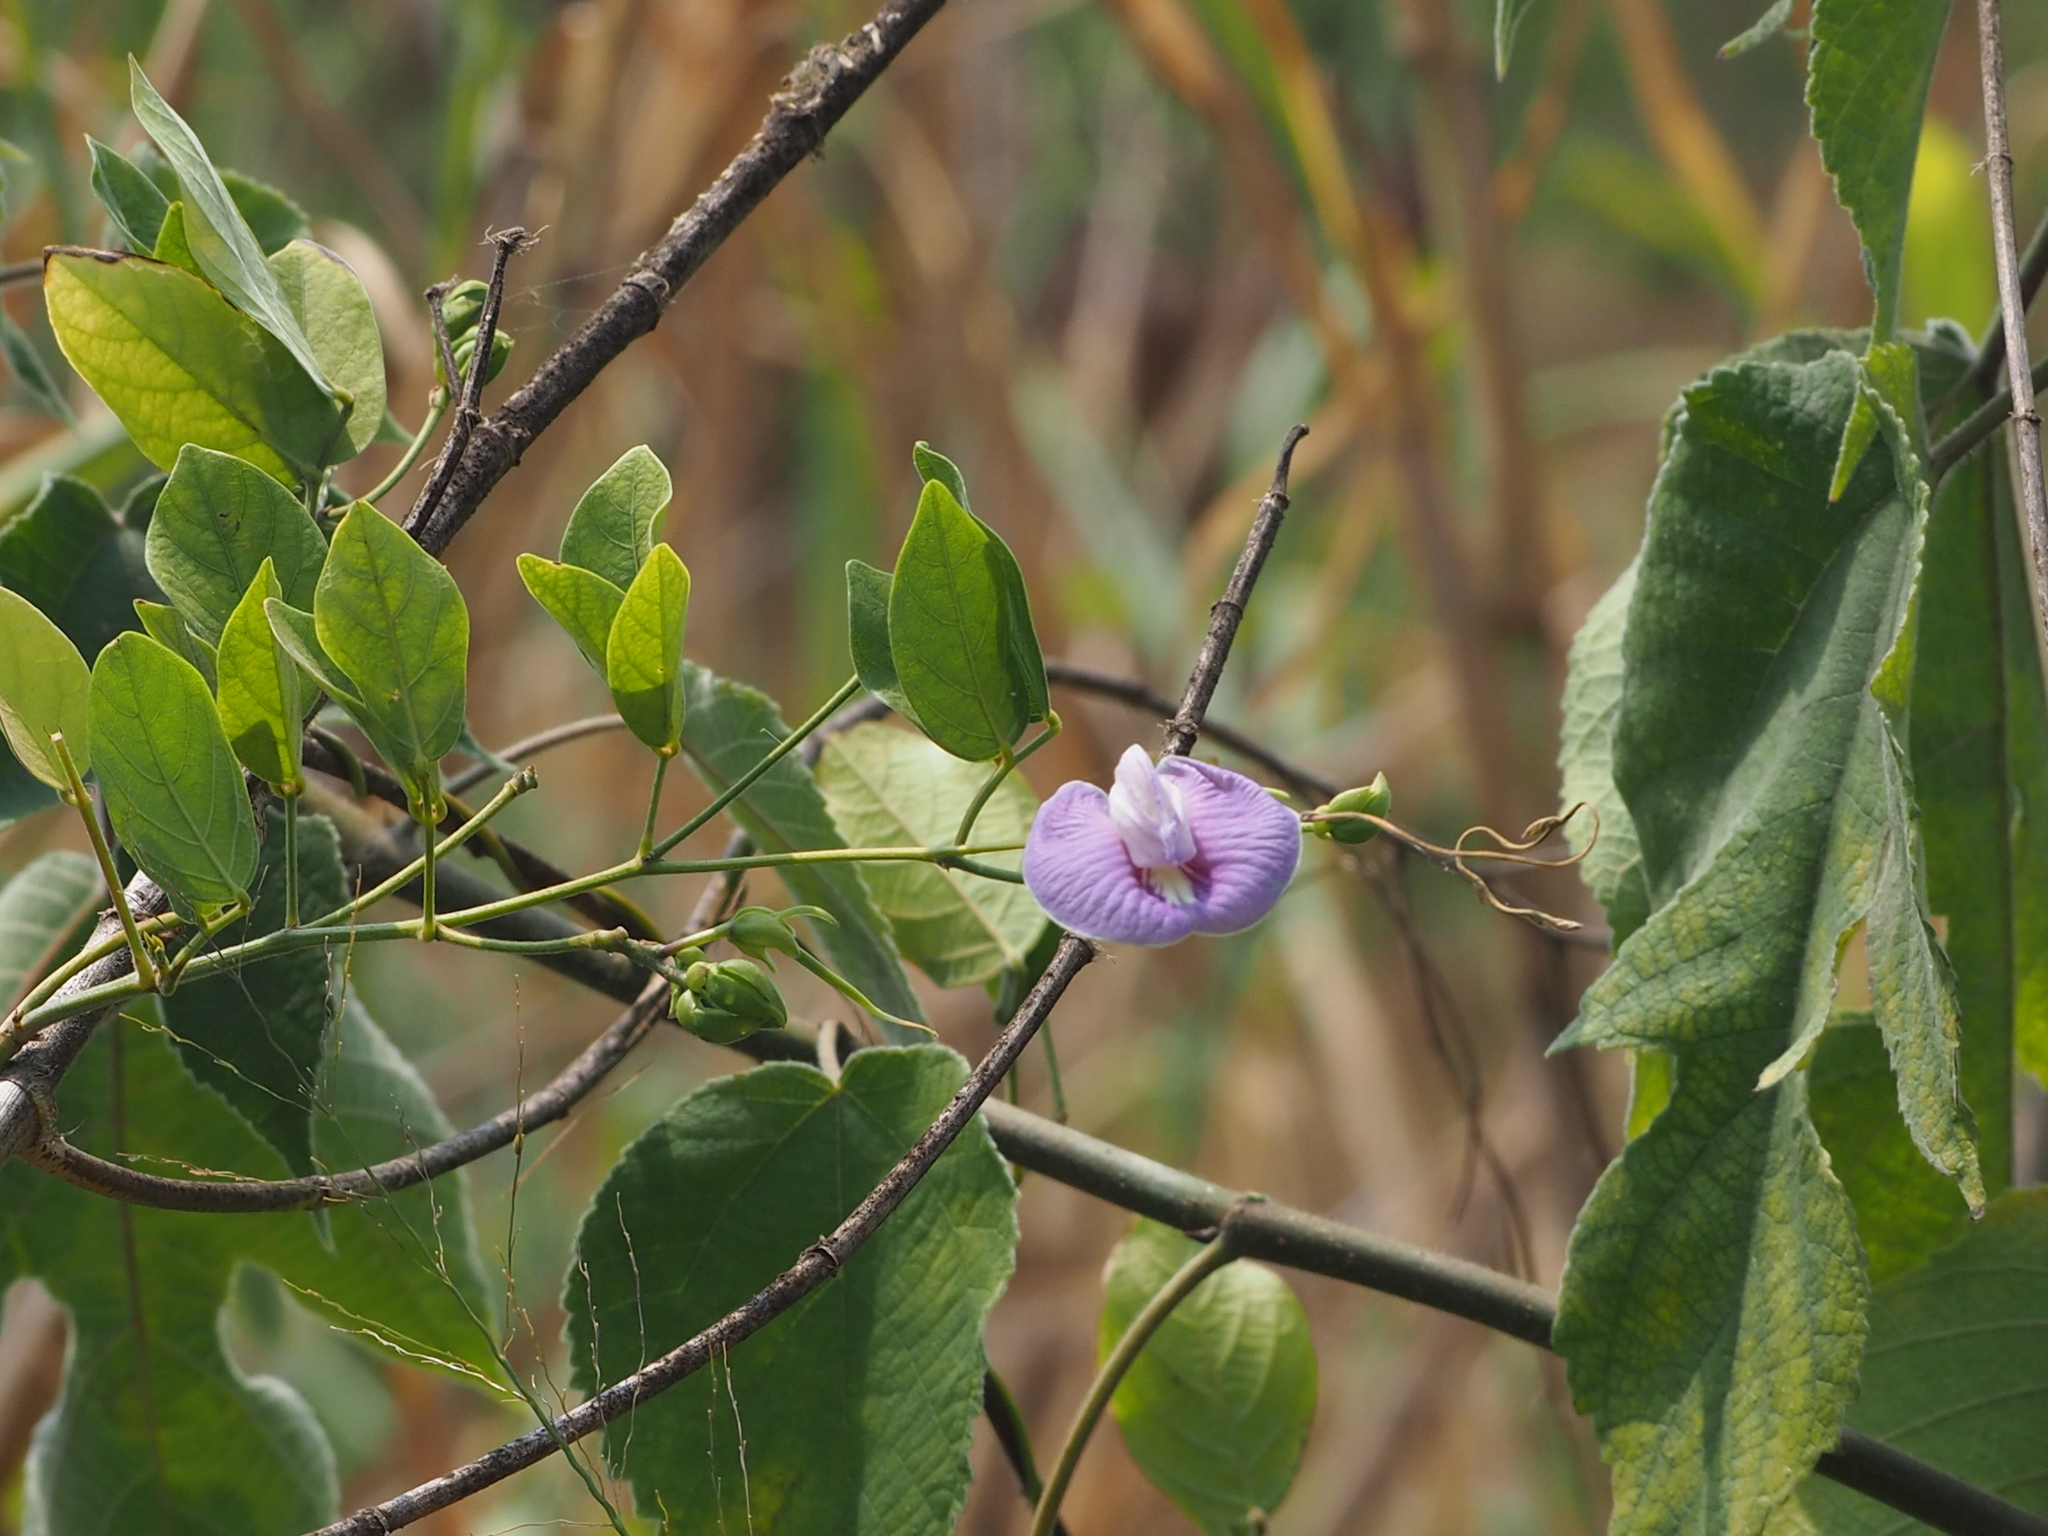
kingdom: Plantae
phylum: Tracheophyta
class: Magnoliopsida
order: Fabales
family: Fabaceae
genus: Centrosema
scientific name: Centrosema pubescens
